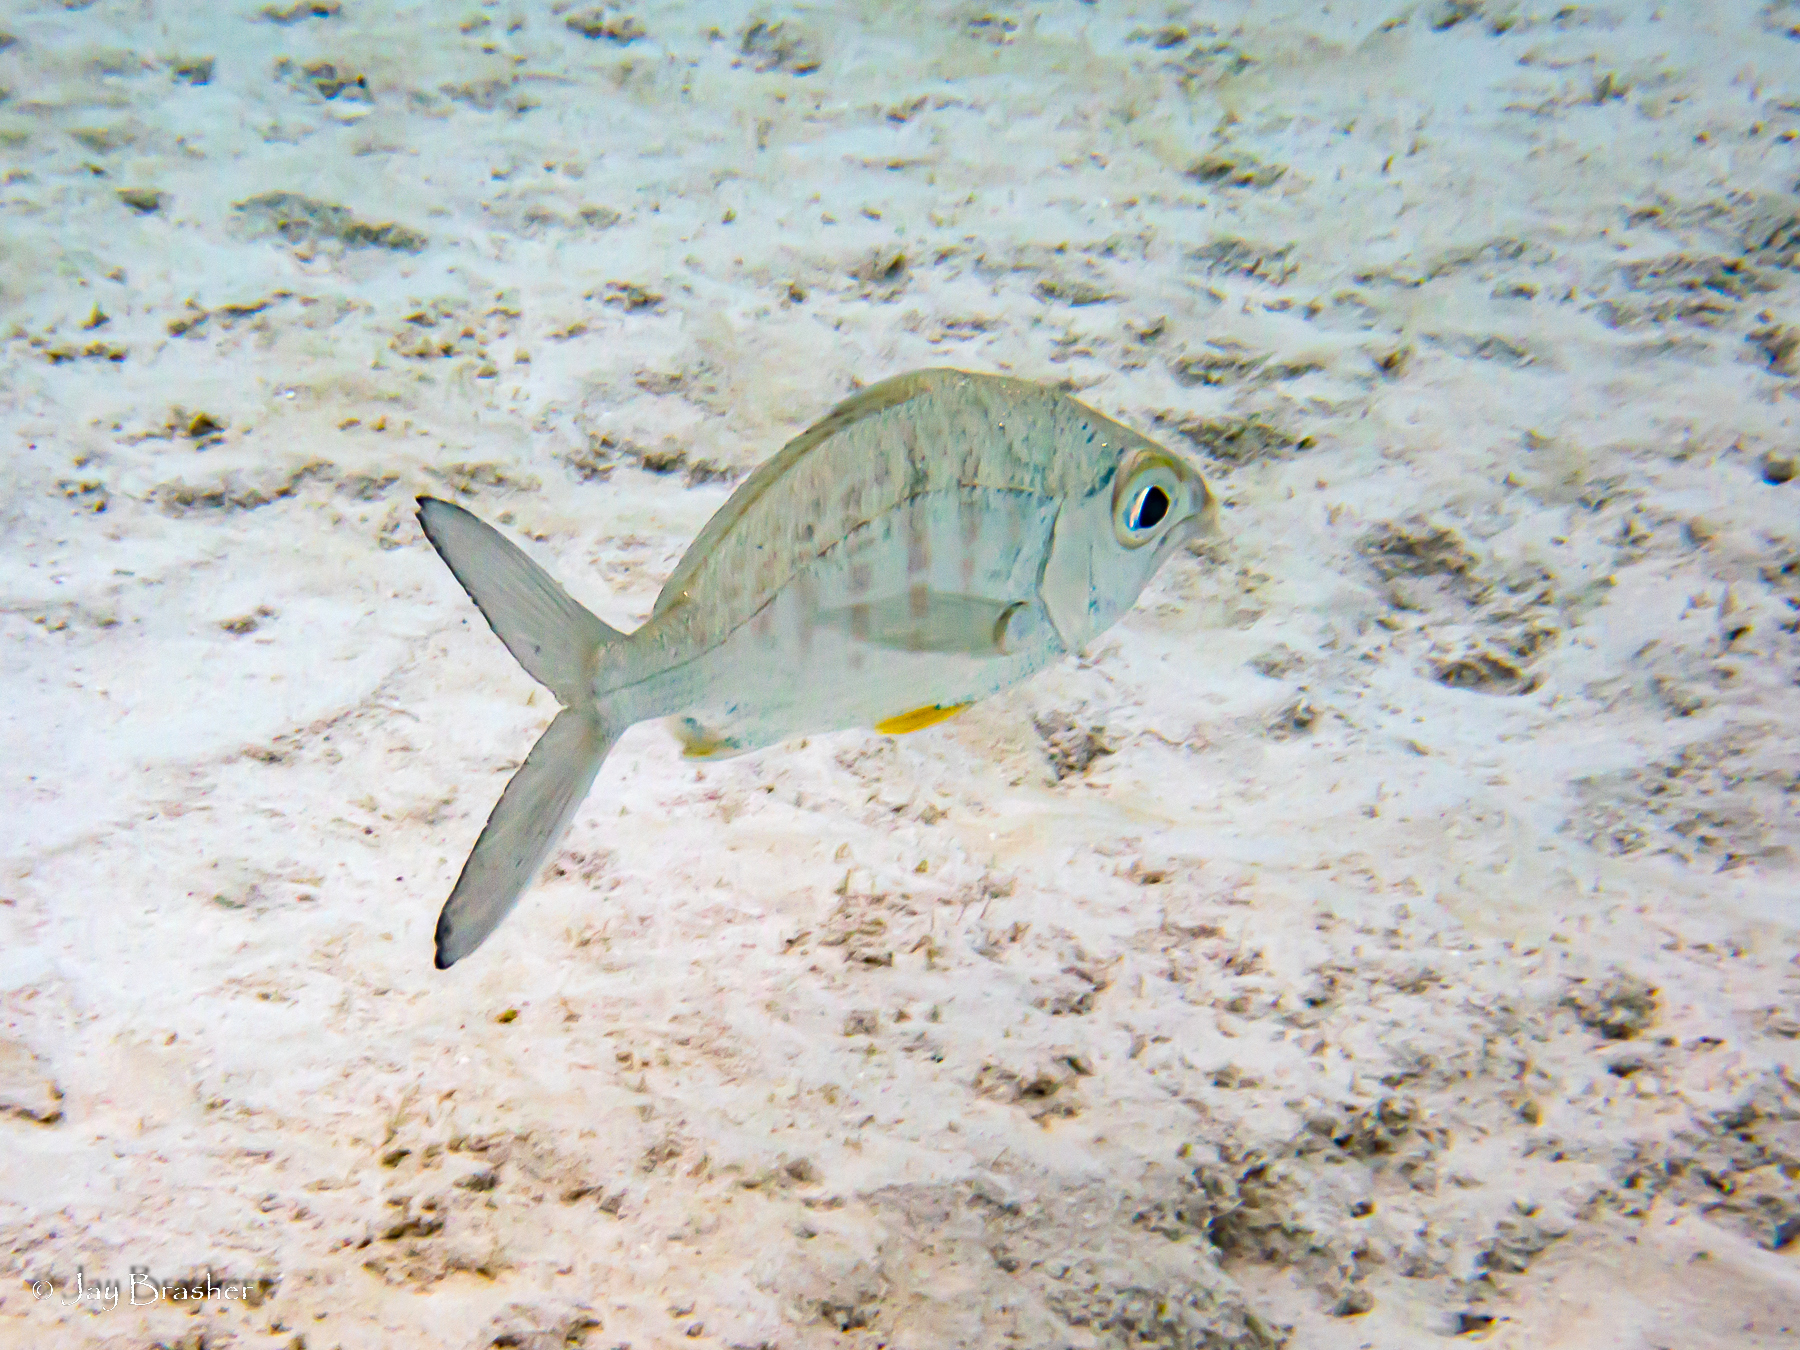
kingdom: Animalia
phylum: Chordata
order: Perciformes
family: Gerreidae
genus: Gerres
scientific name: Gerres cinereus
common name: Hedow
